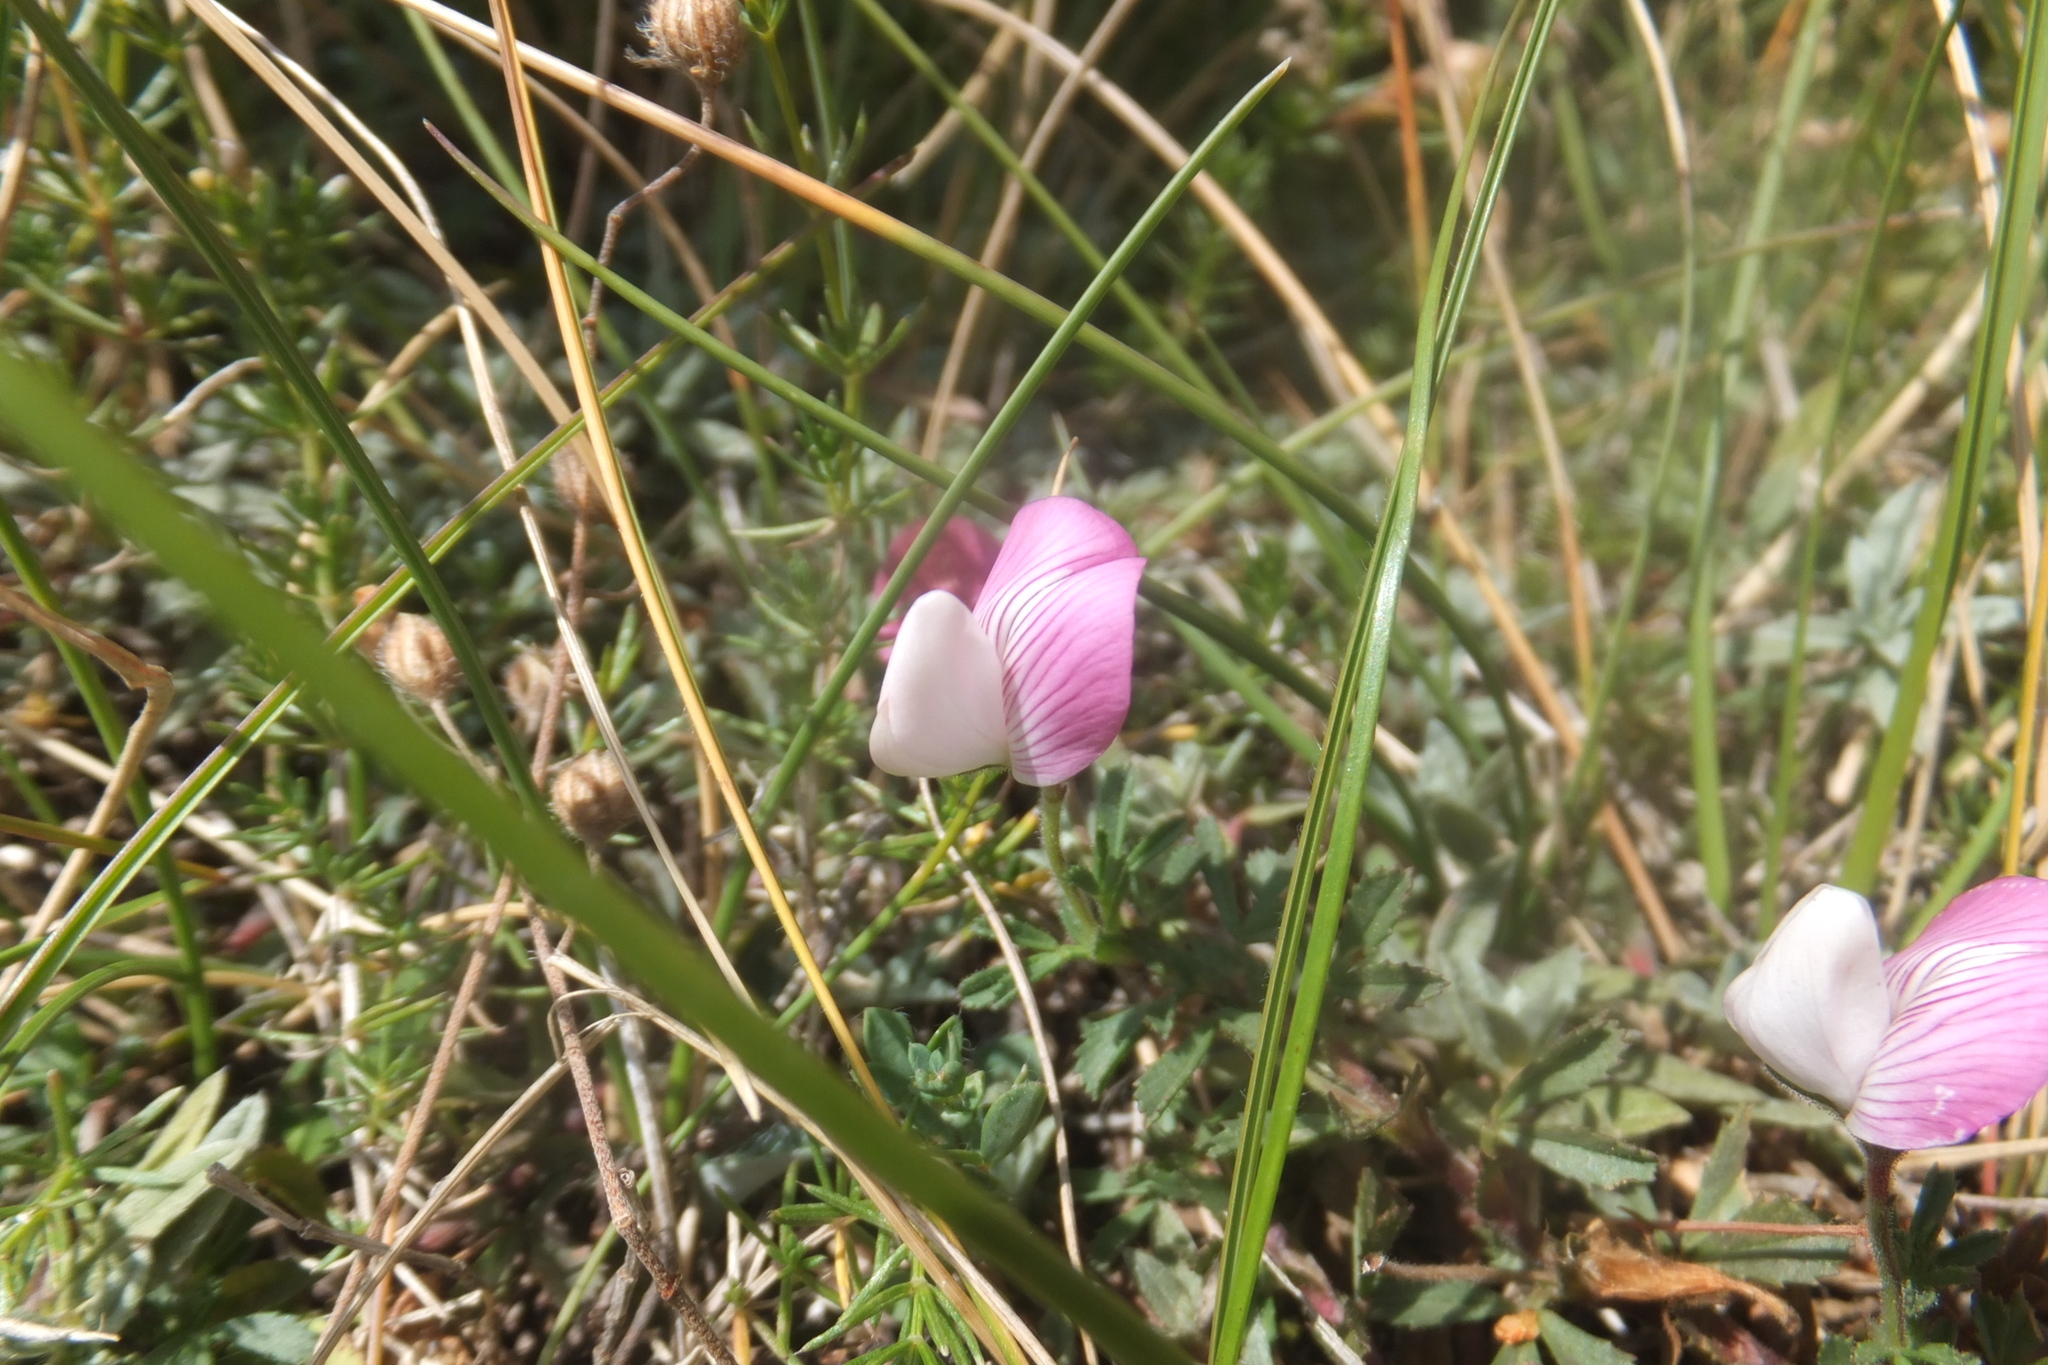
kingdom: Plantae
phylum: Tracheophyta
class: Magnoliopsida
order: Fabales
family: Fabaceae
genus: Ononis
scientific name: Ononis cristata
